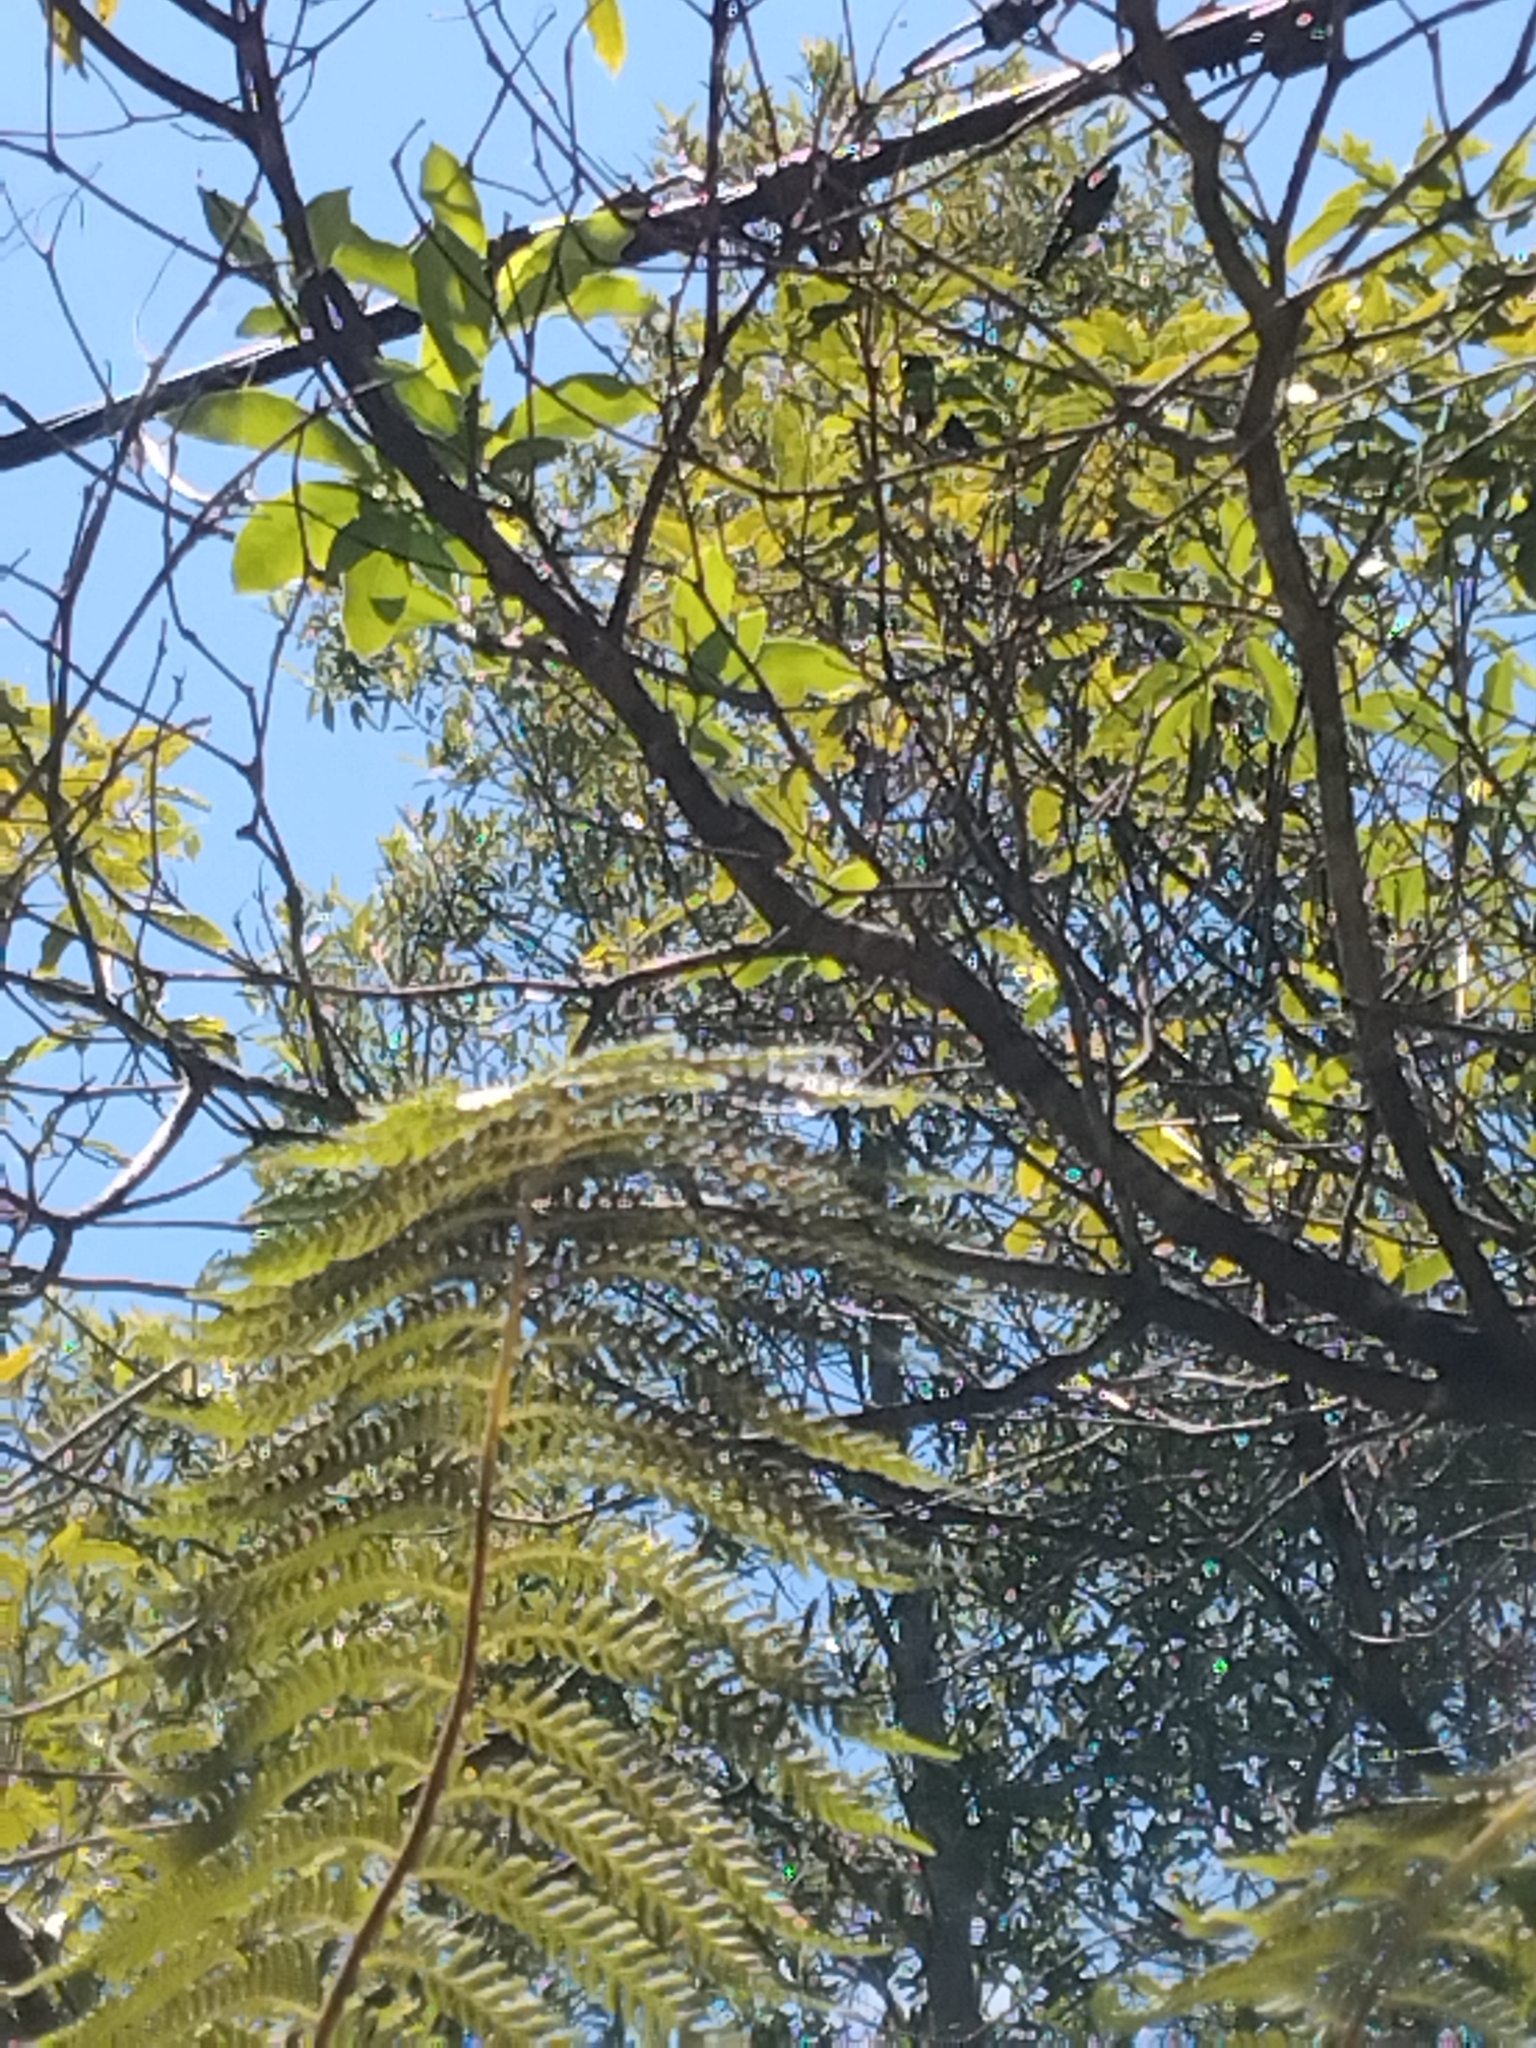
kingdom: Animalia
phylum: Arthropoda
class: Insecta
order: Hemiptera
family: Cicadidae
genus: Aleeta
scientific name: Aleeta curvicosta
